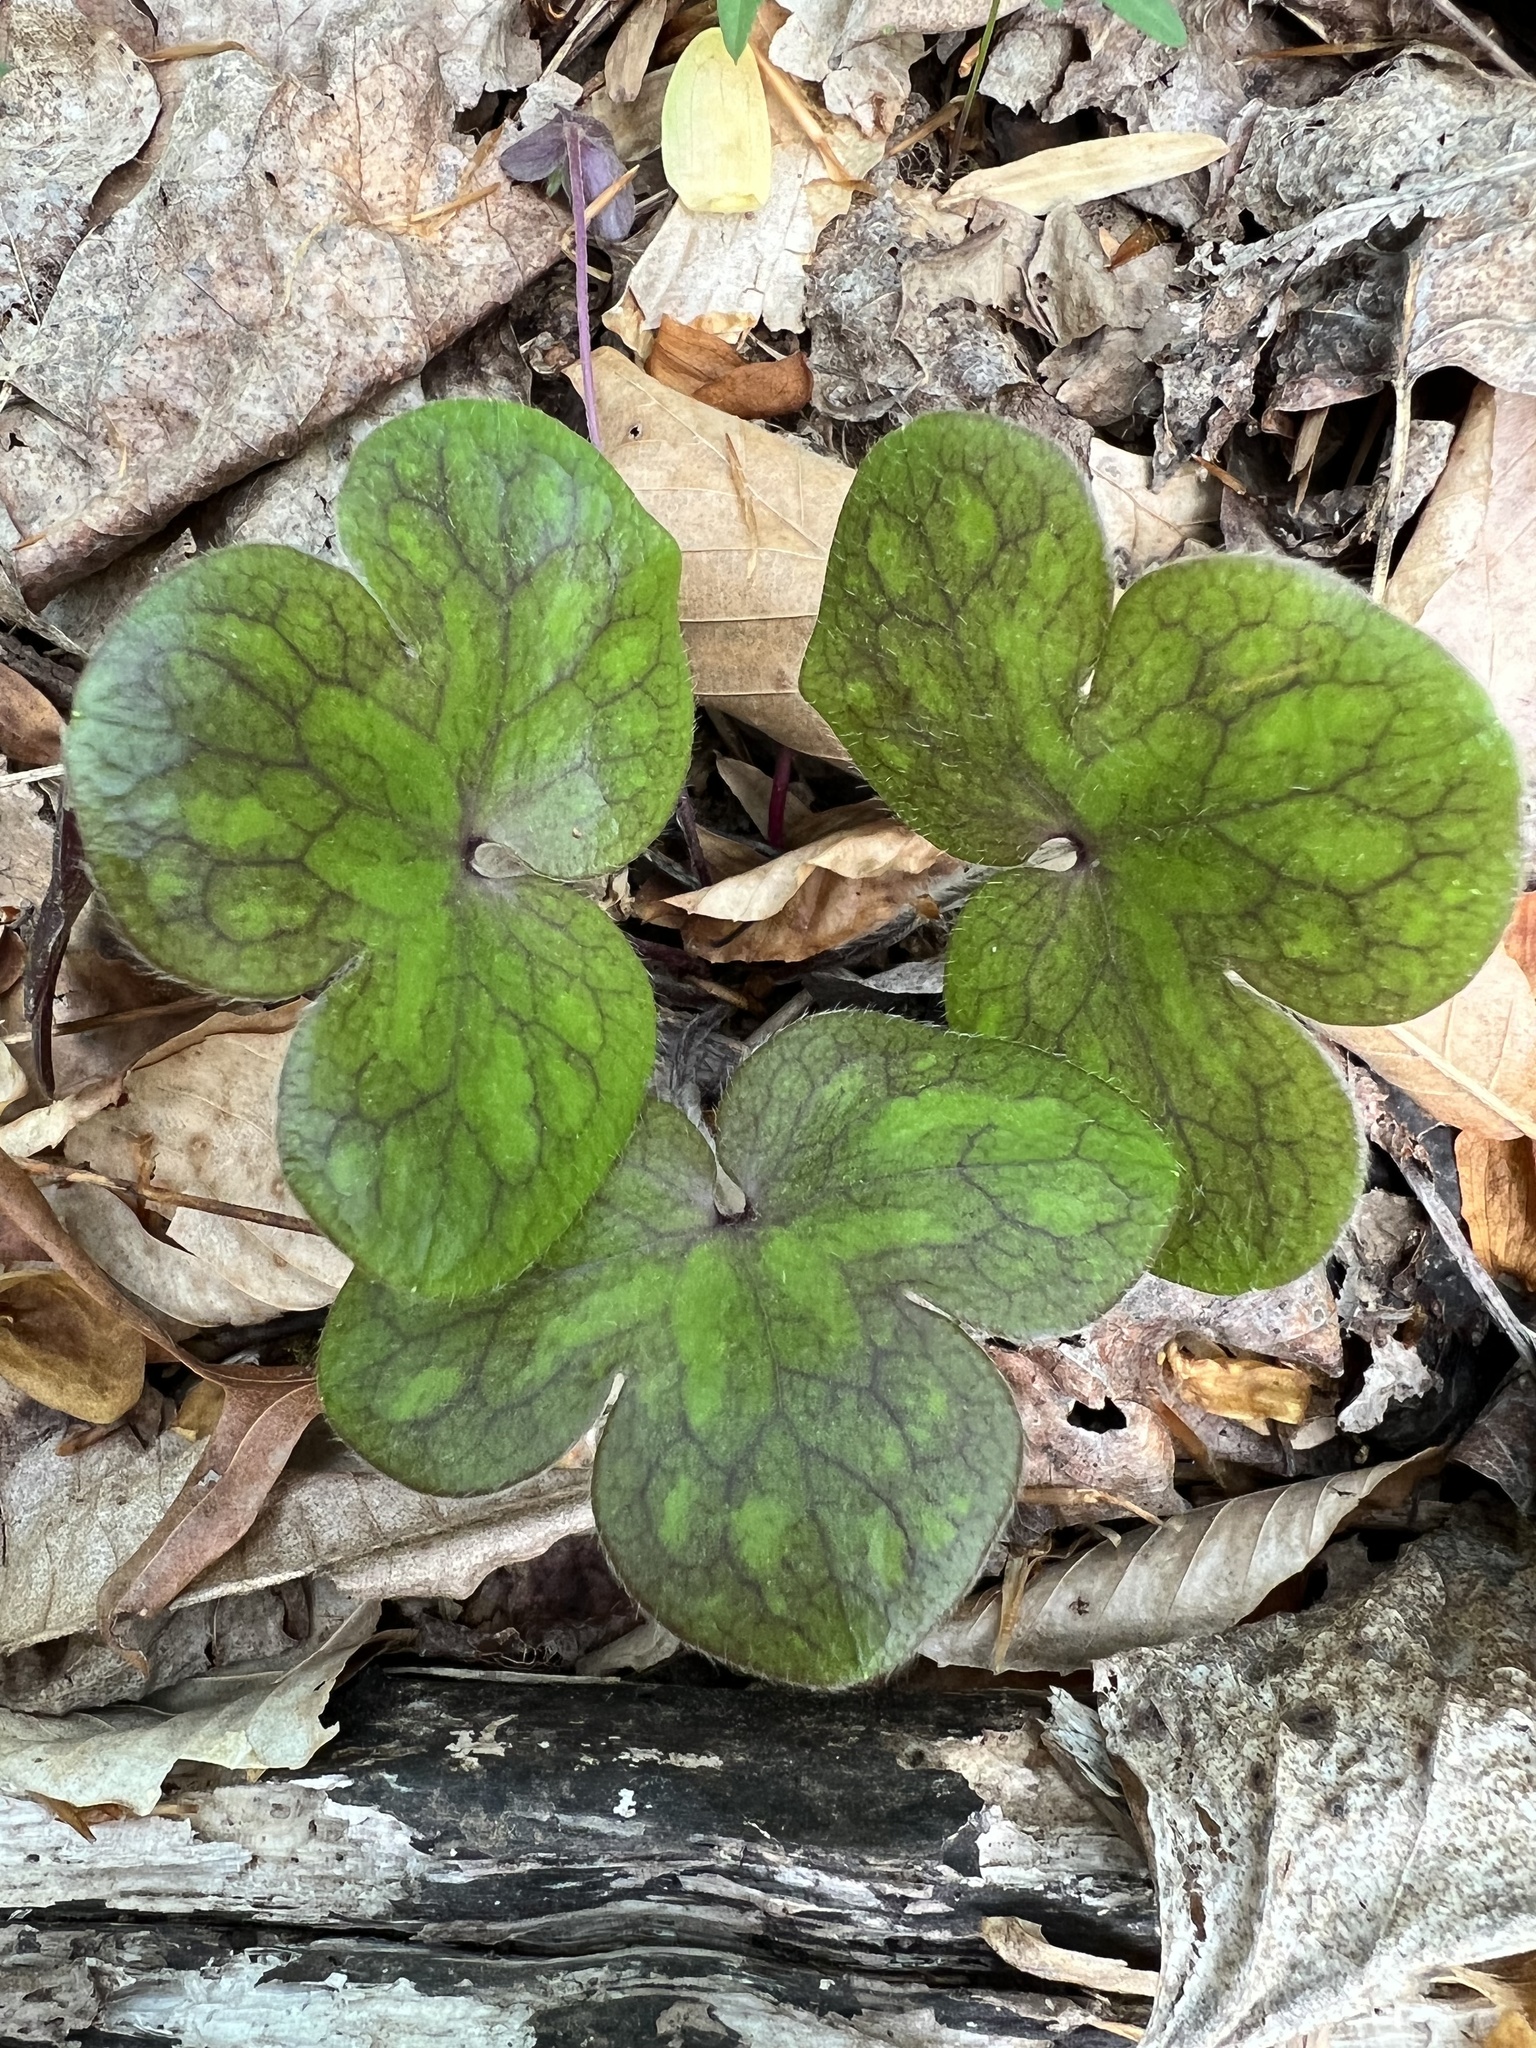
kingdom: Plantae
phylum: Tracheophyta
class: Magnoliopsida
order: Ranunculales
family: Ranunculaceae
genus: Hepatica
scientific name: Hepatica americana
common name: American hepatica
